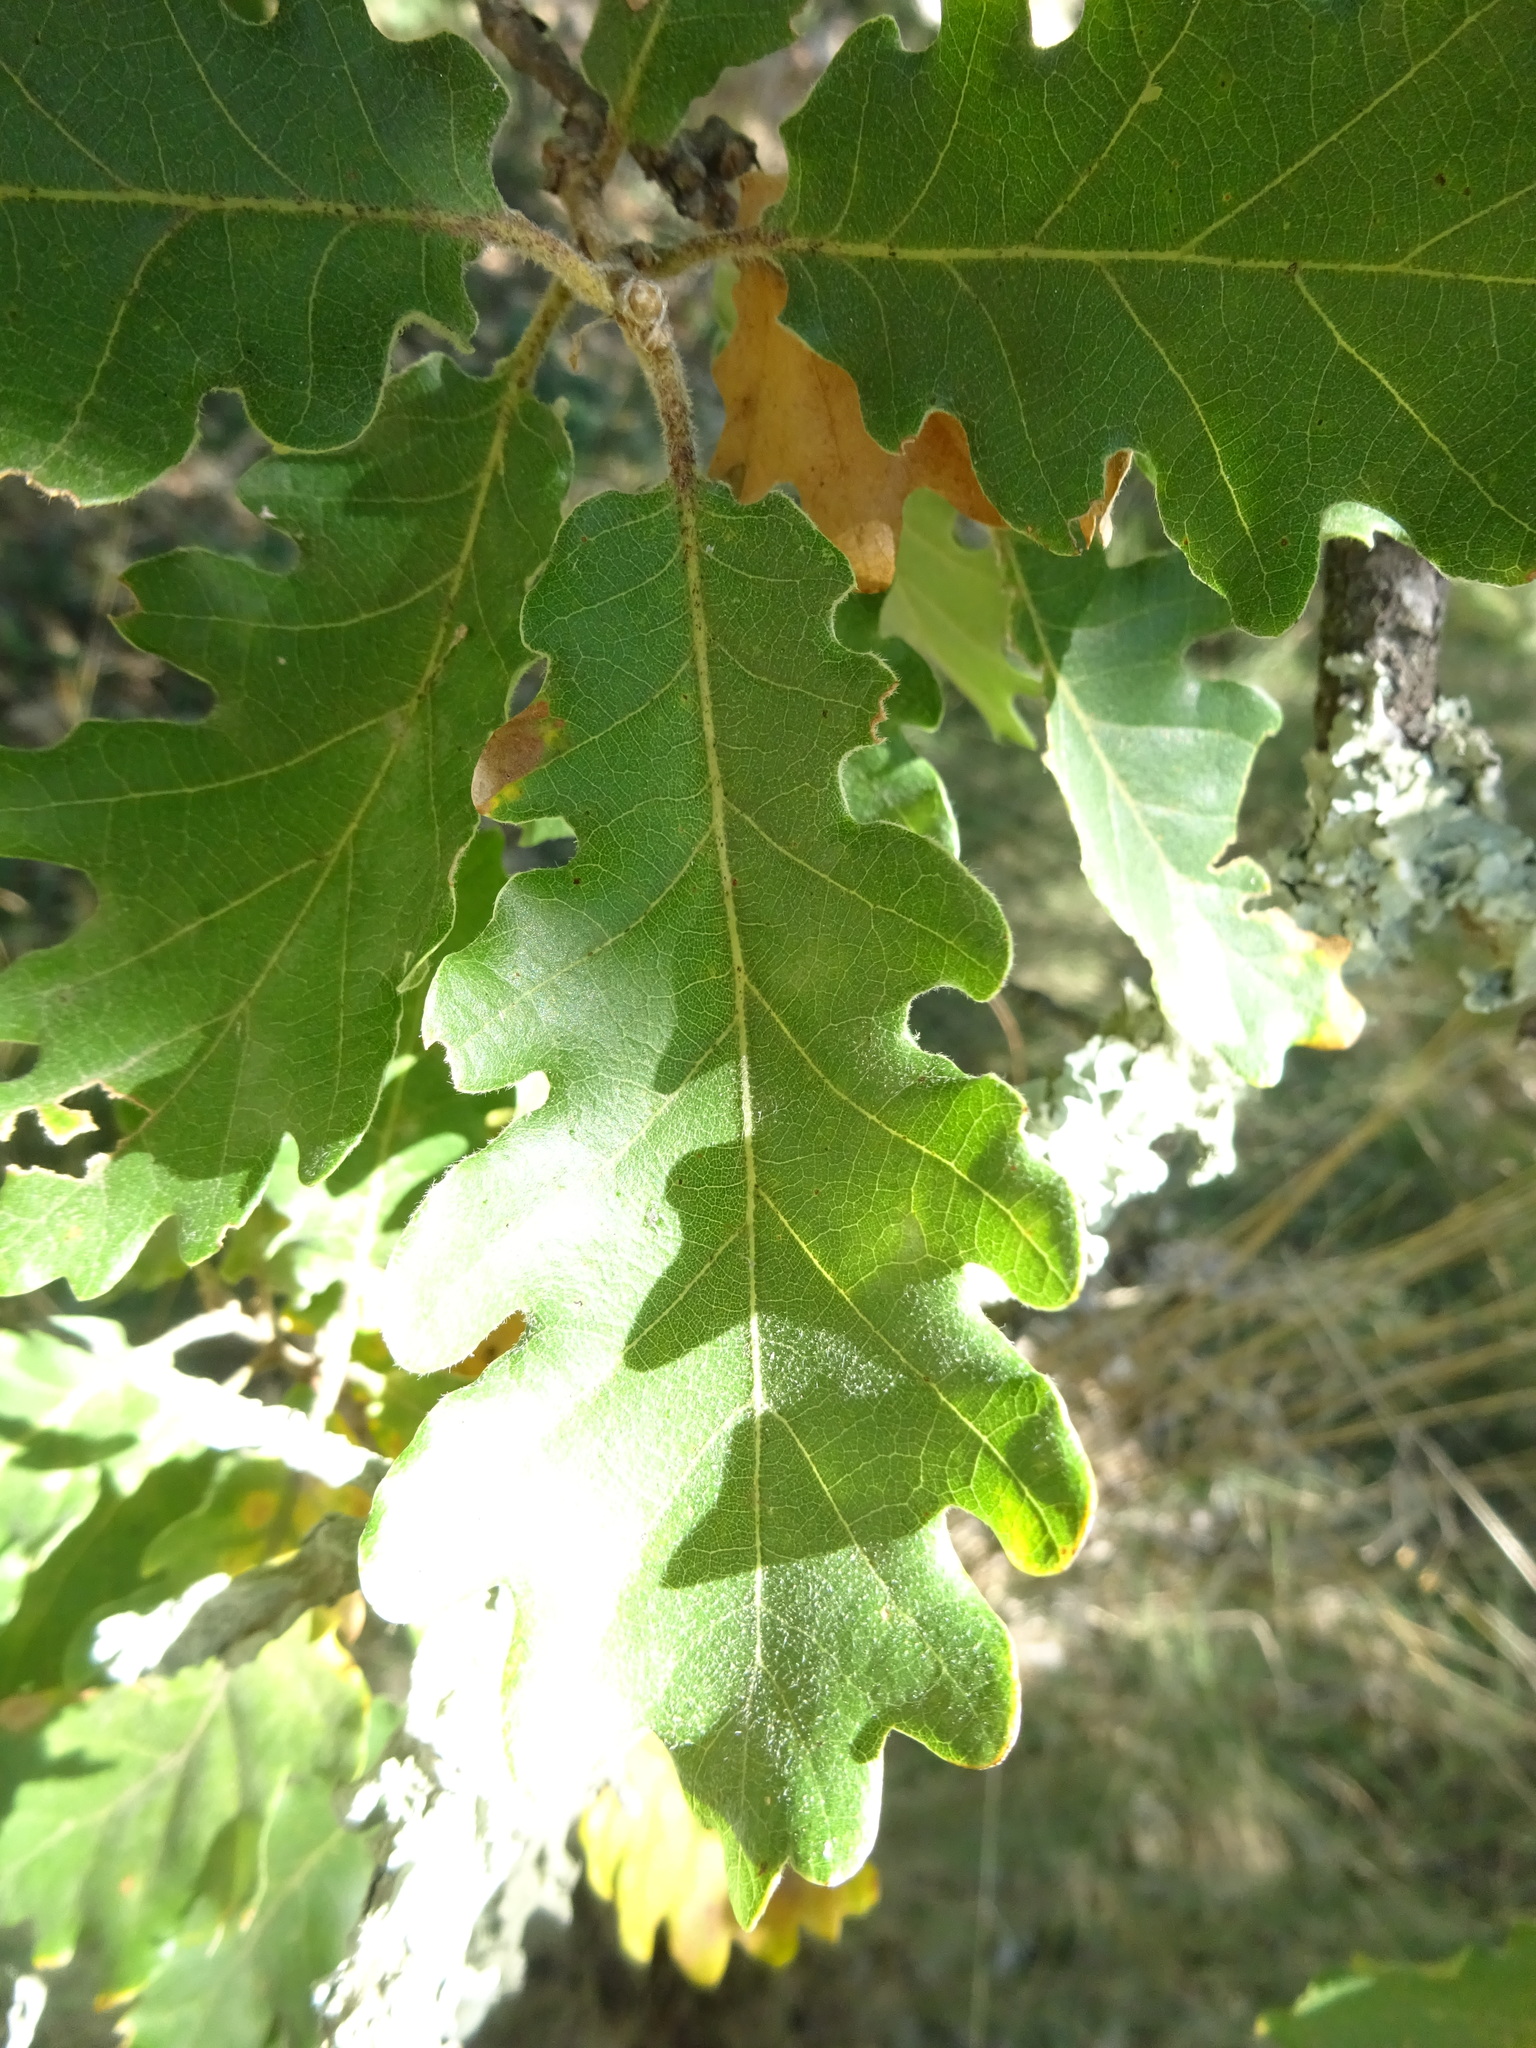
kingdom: Plantae
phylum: Tracheophyta
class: Magnoliopsida
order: Fagales
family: Fagaceae
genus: Quercus
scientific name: Quercus pubescens
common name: Downy oak
